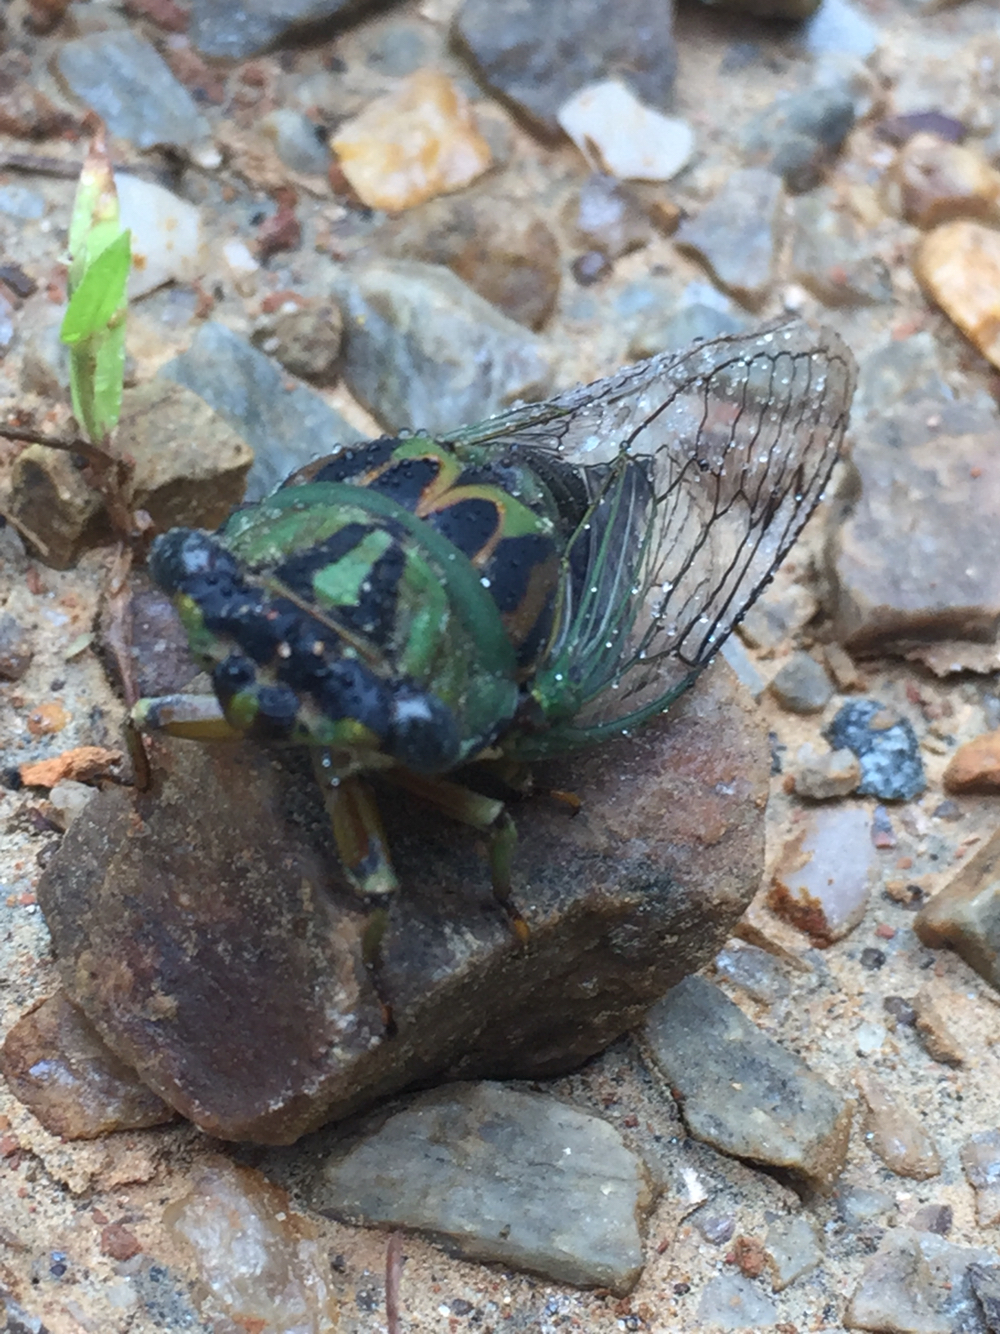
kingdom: Animalia
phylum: Arthropoda
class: Insecta
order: Hemiptera
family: Cicadidae
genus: Neotibicen
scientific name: Neotibicen linnei
